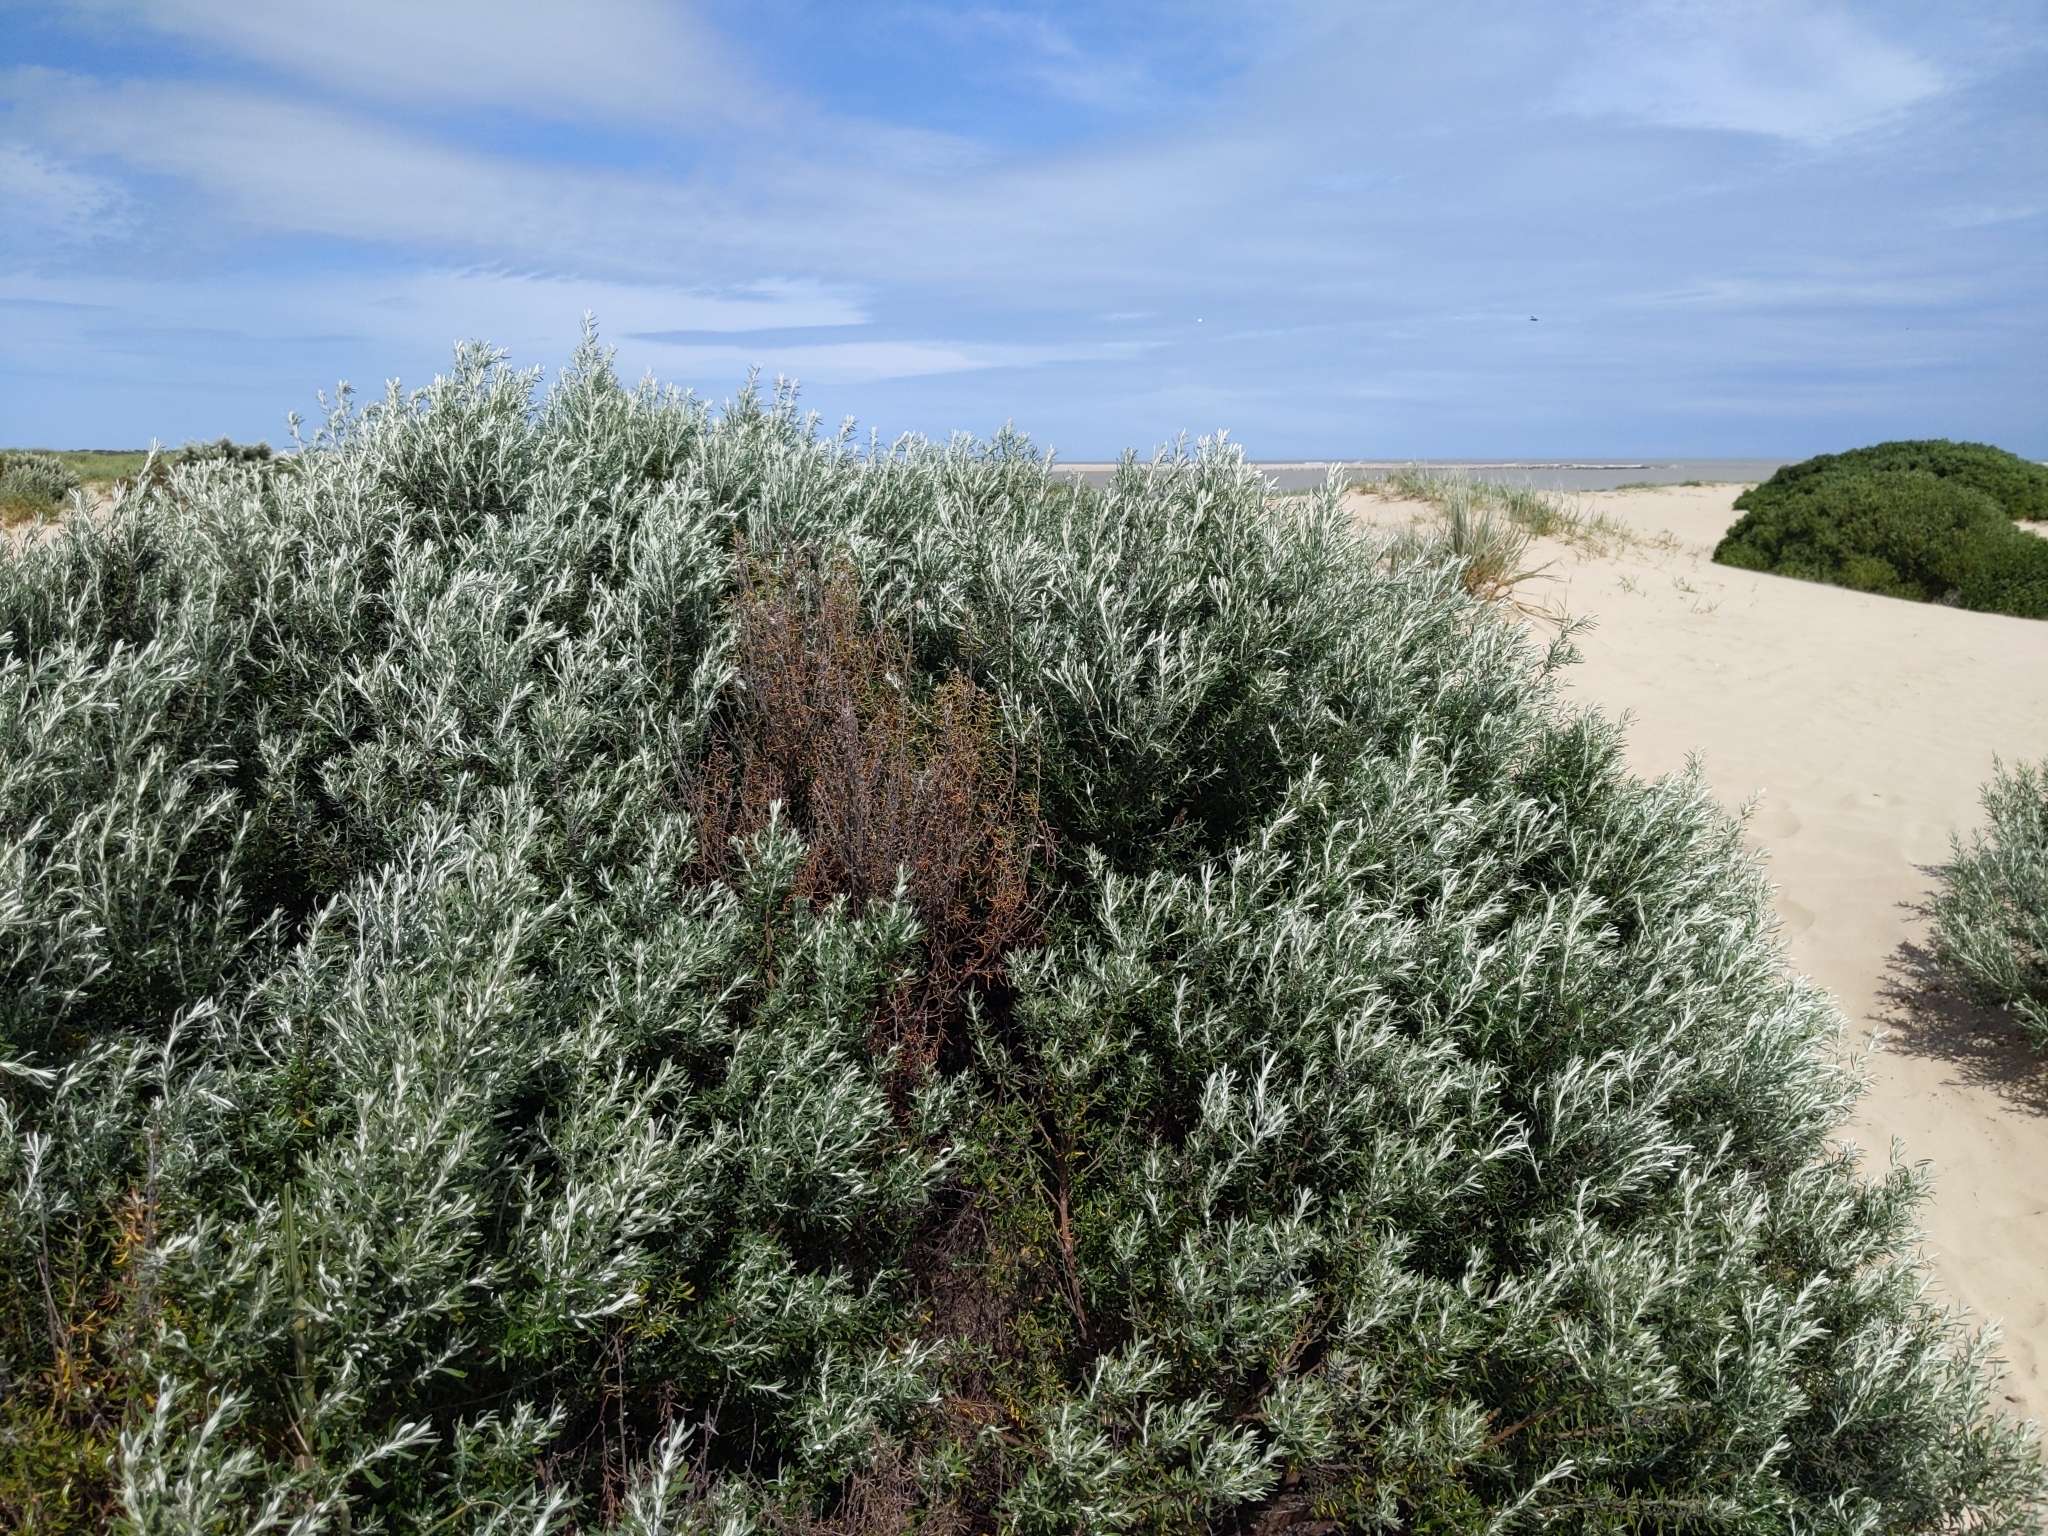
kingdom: Plantae
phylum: Tracheophyta
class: Magnoliopsida
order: Asterales
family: Asteraceae
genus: Olearia
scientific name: Olearia axillaris
